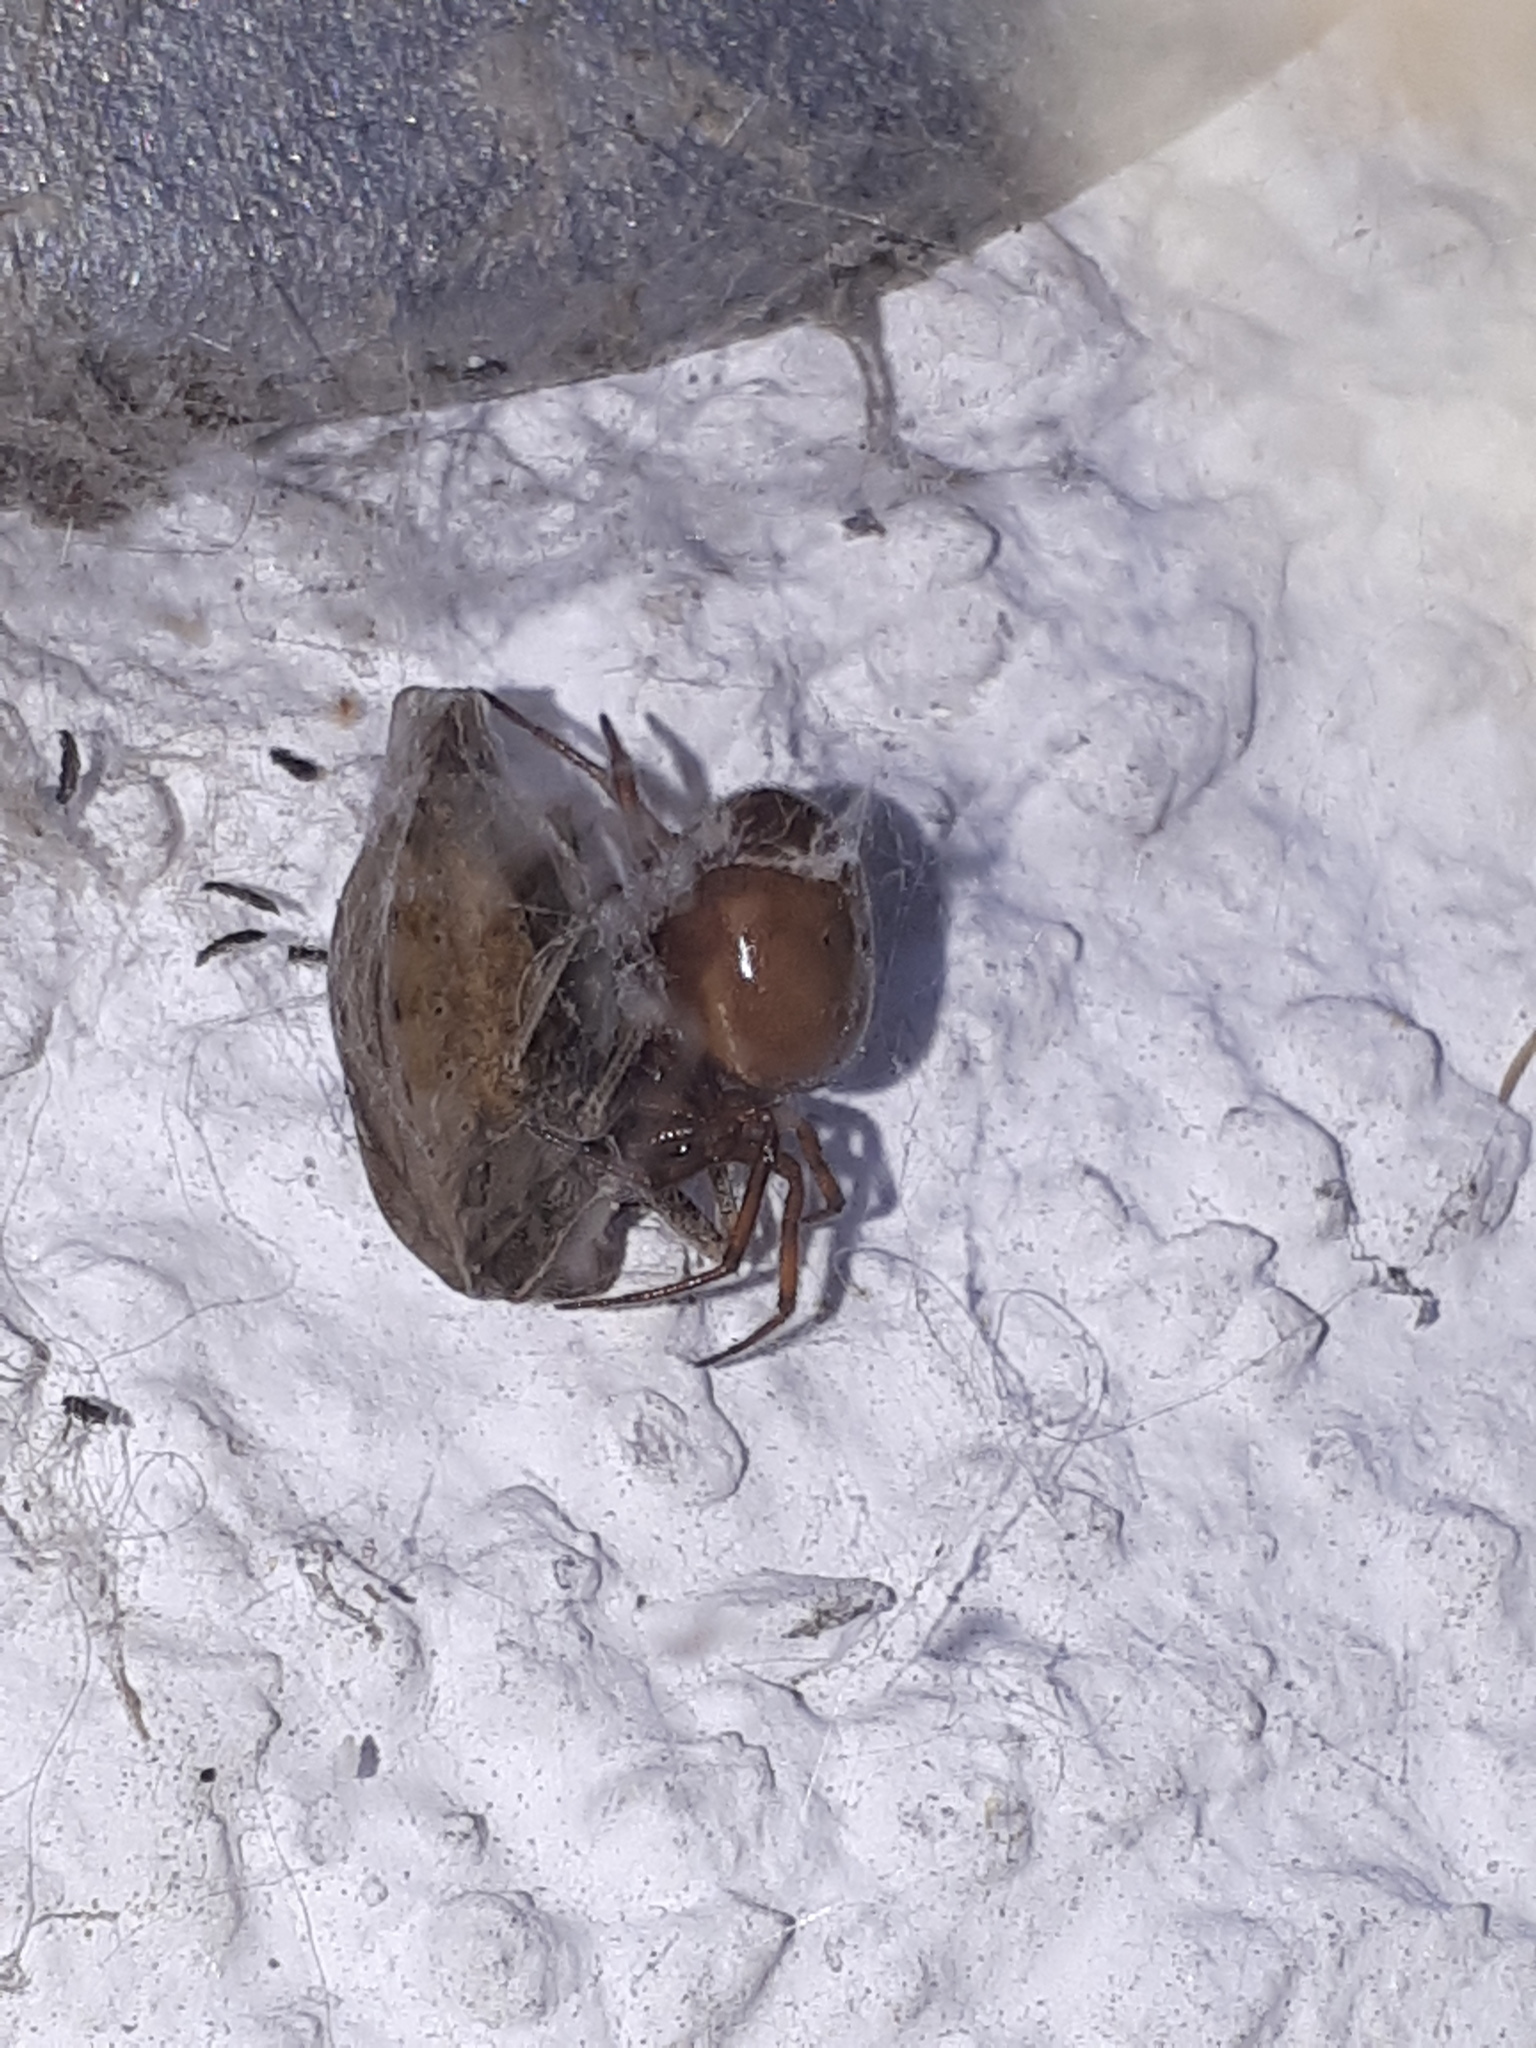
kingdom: Animalia
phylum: Arthropoda
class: Arachnida
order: Araneae
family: Theridiidae
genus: Steatoda
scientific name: Steatoda bipunctata
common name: False widow
